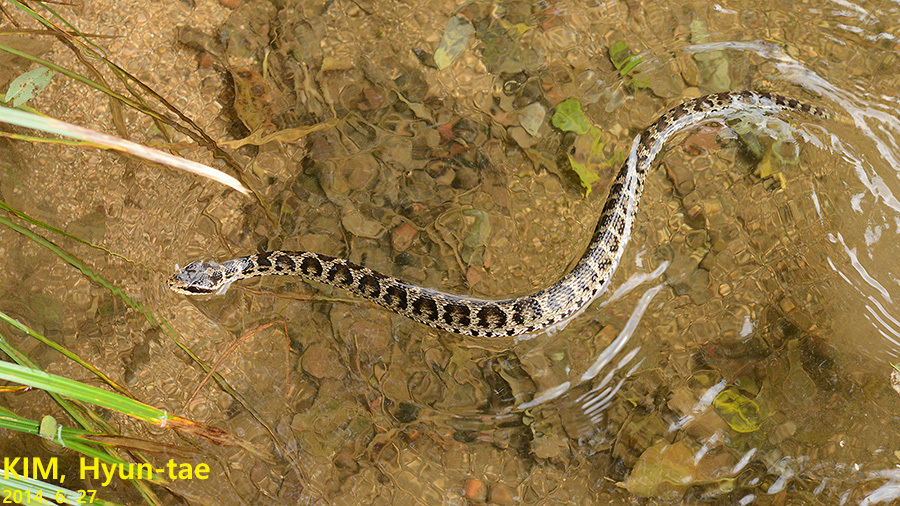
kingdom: Animalia
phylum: Chordata
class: Squamata
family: Viperidae
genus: Gloydius
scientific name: Gloydius brevicauda
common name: Short-tailed mamushi
